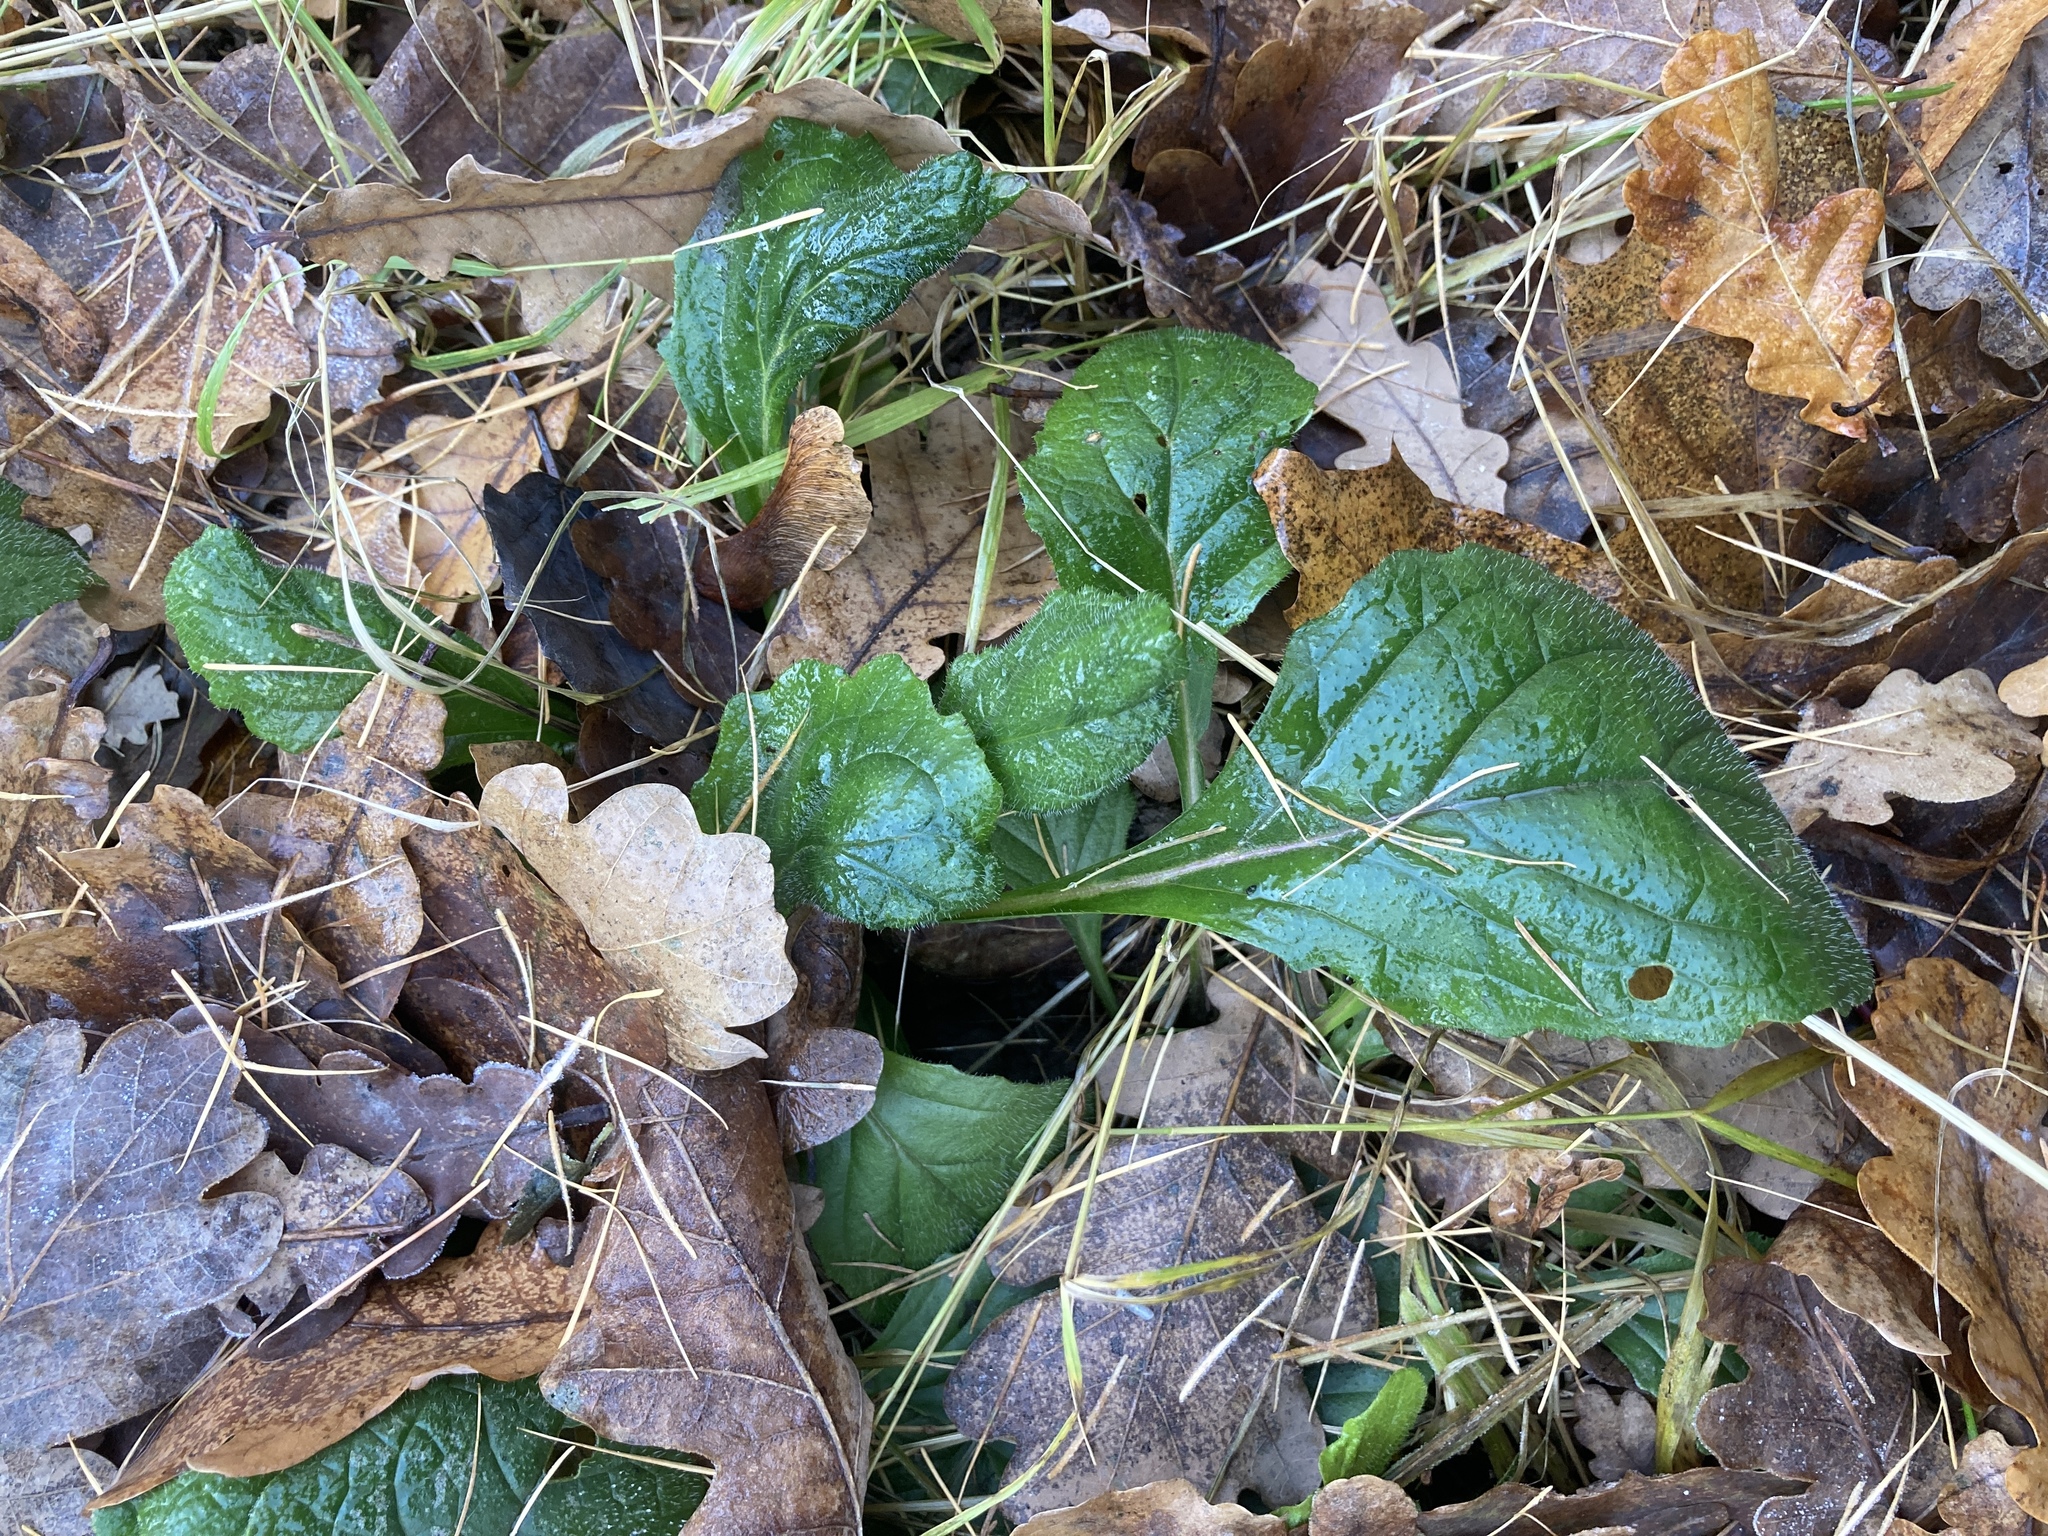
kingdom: Plantae
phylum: Tracheophyta
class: Magnoliopsida
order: Lamiales
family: Lamiaceae
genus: Ajuga
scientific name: Ajuga reptans
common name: Bugle
